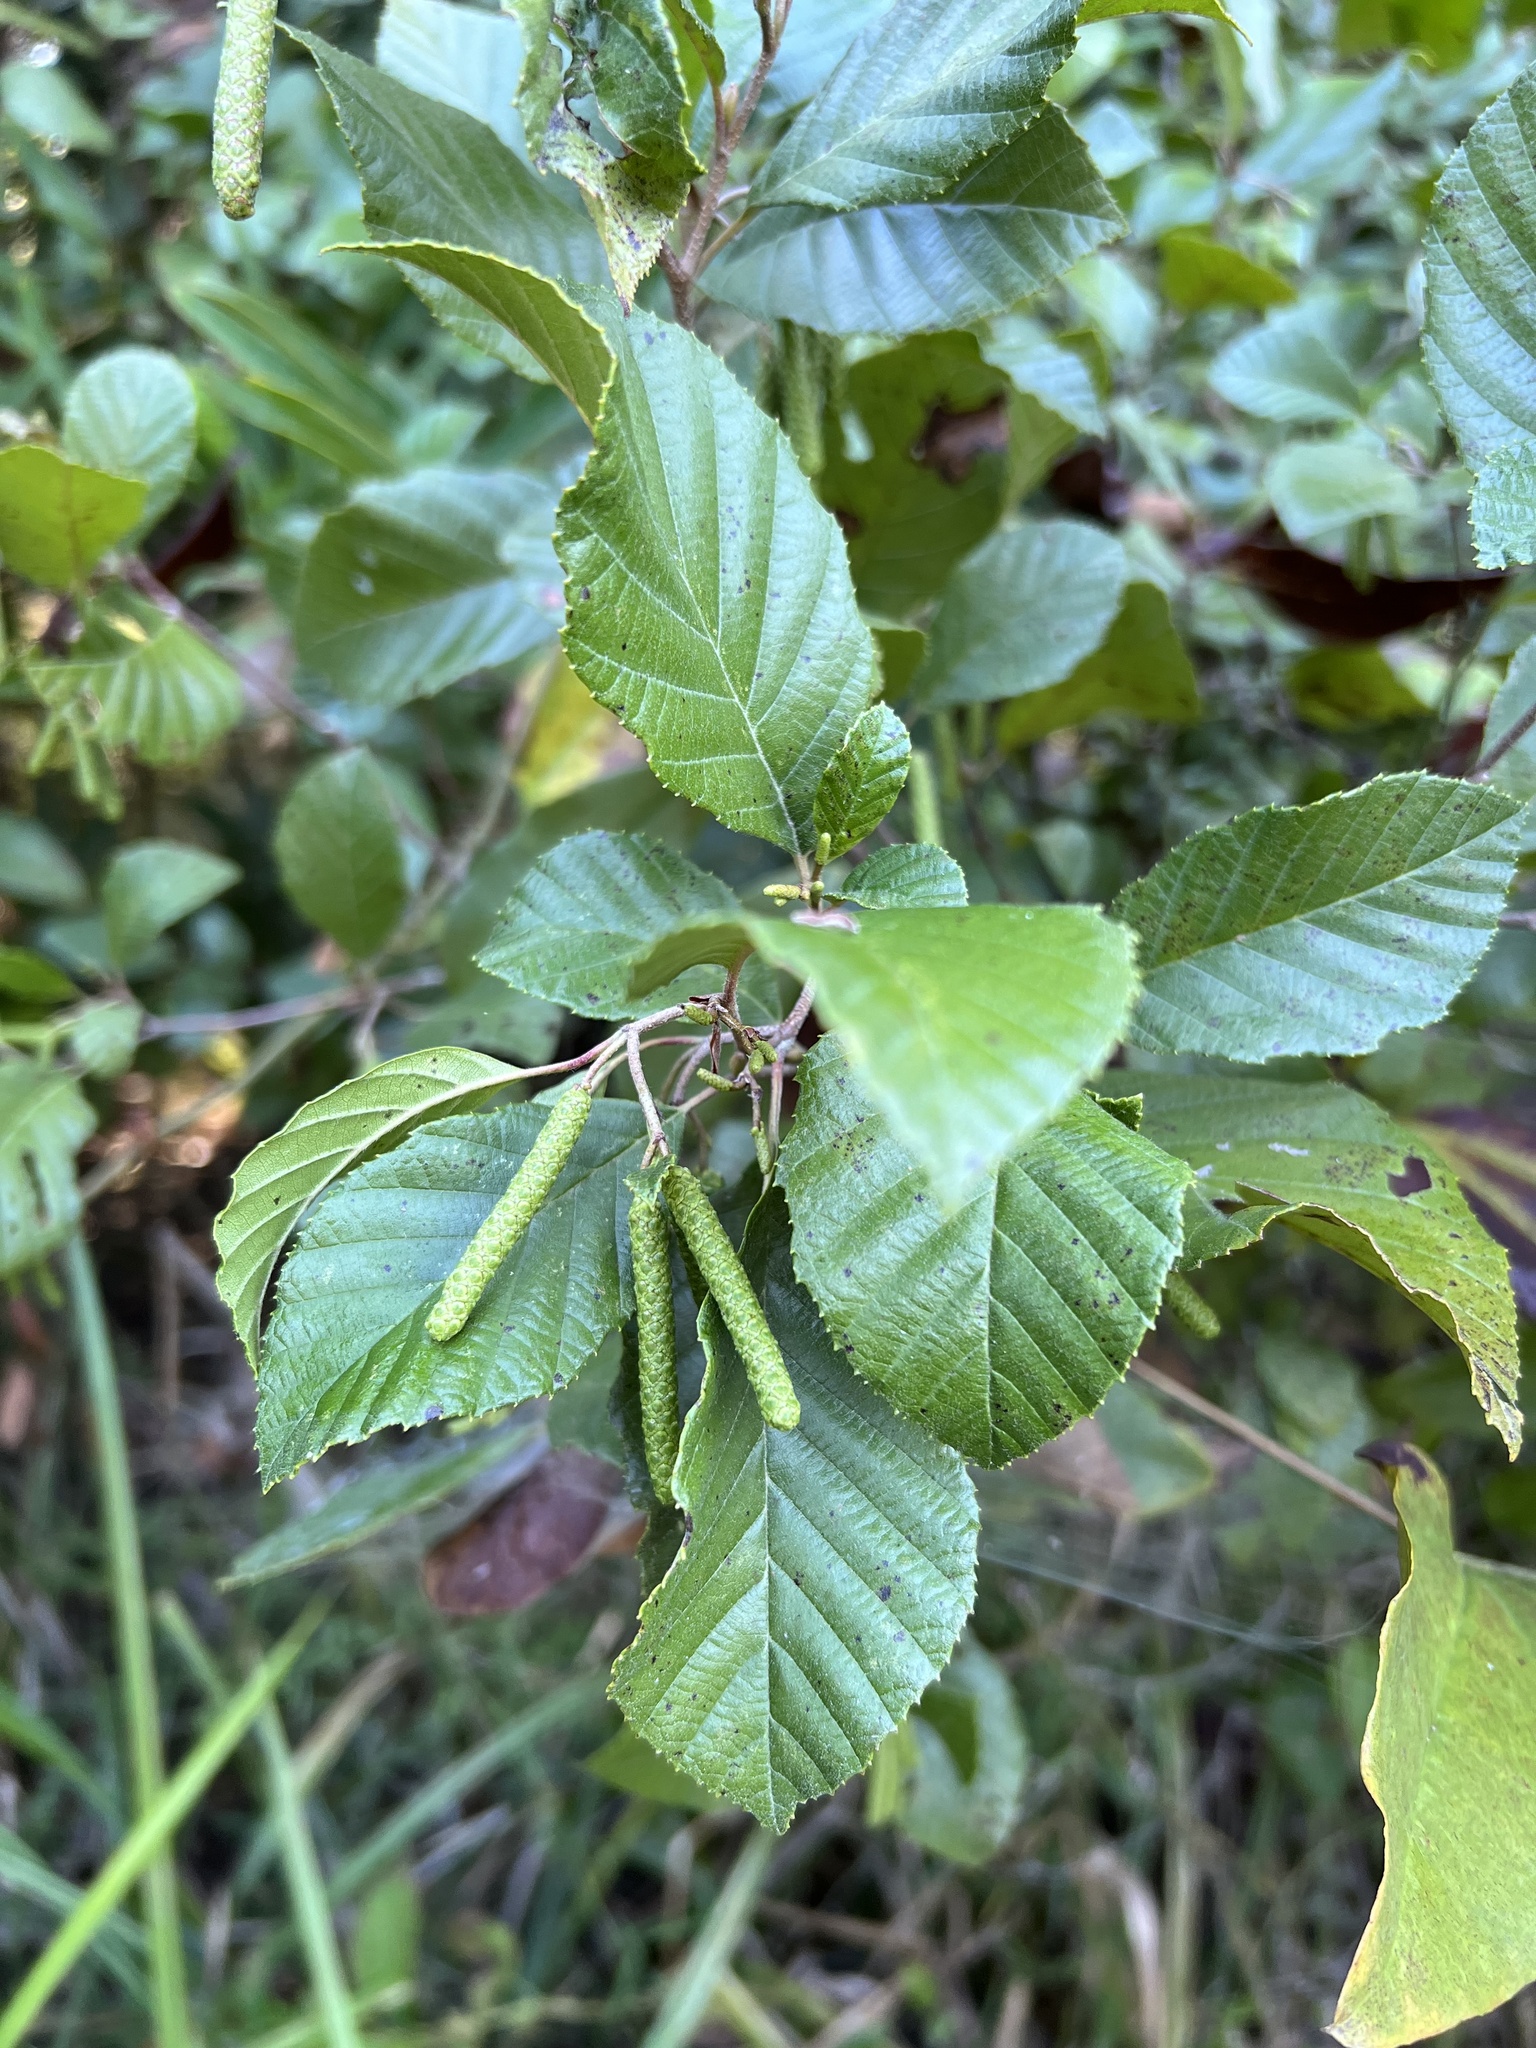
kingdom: Plantae
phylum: Tracheophyta
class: Magnoliopsida
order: Fagales
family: Betulaceae
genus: Alnus
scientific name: Alnus serrulata
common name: Hazel alder
